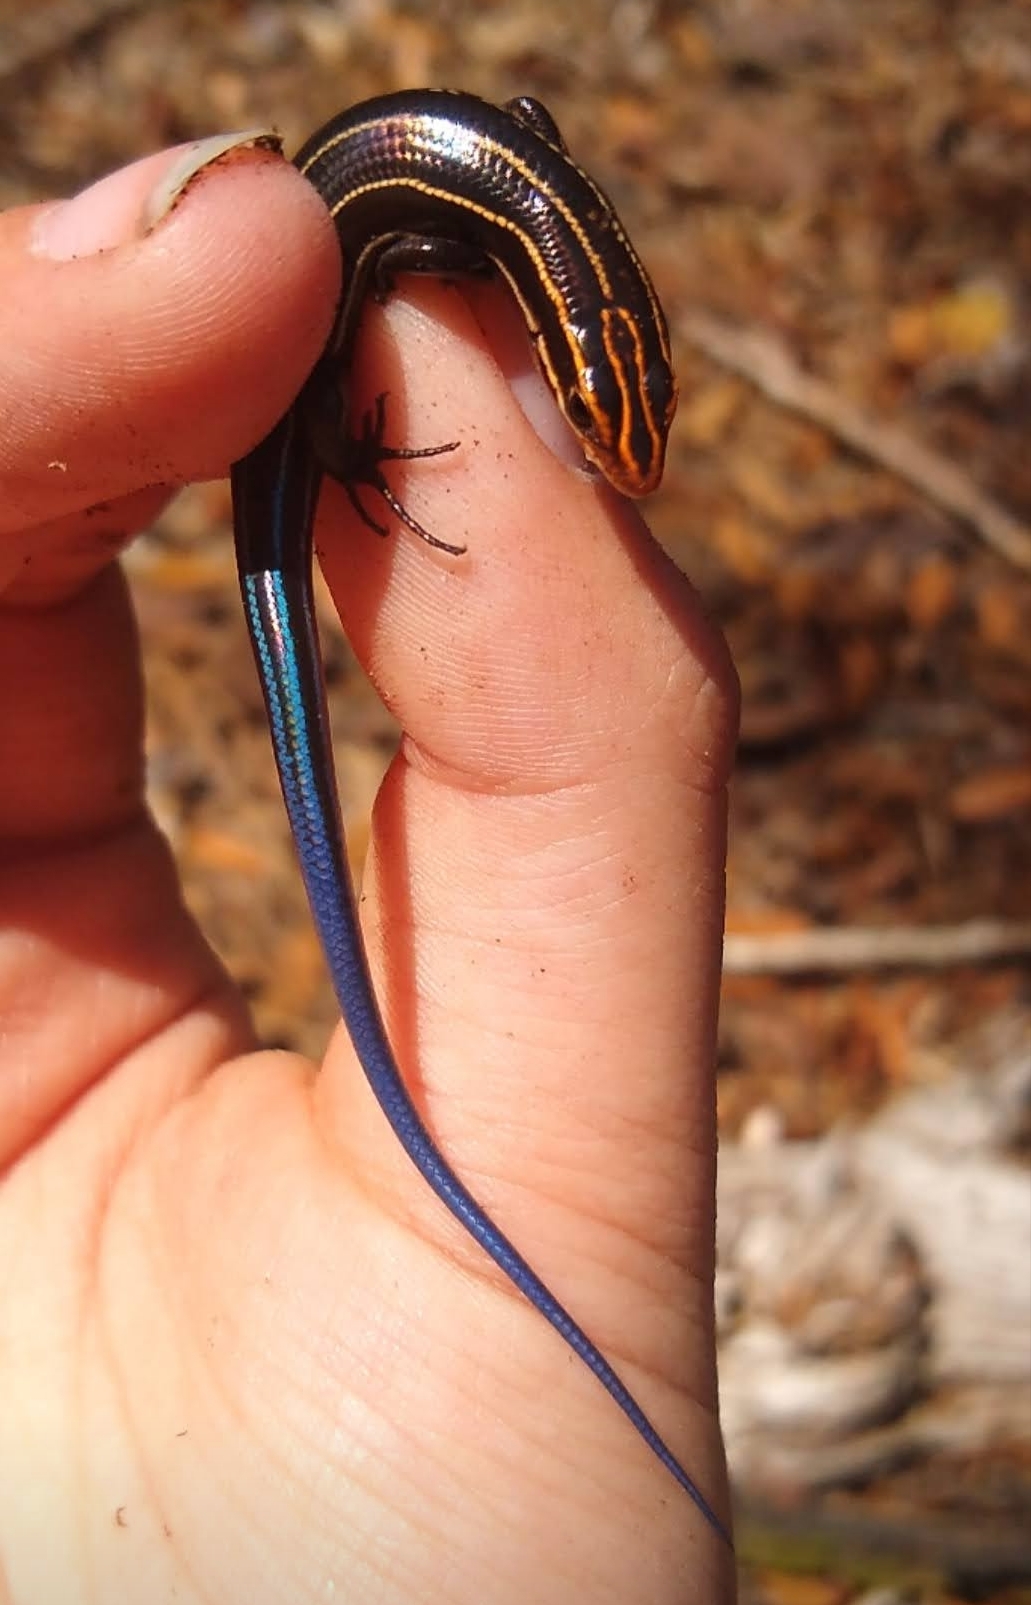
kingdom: Animalia
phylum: Chordata
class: Squamata
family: Scincidae
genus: Plestiodon
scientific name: Plestiodon inexpectatus
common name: Southeastern five-lined skink
